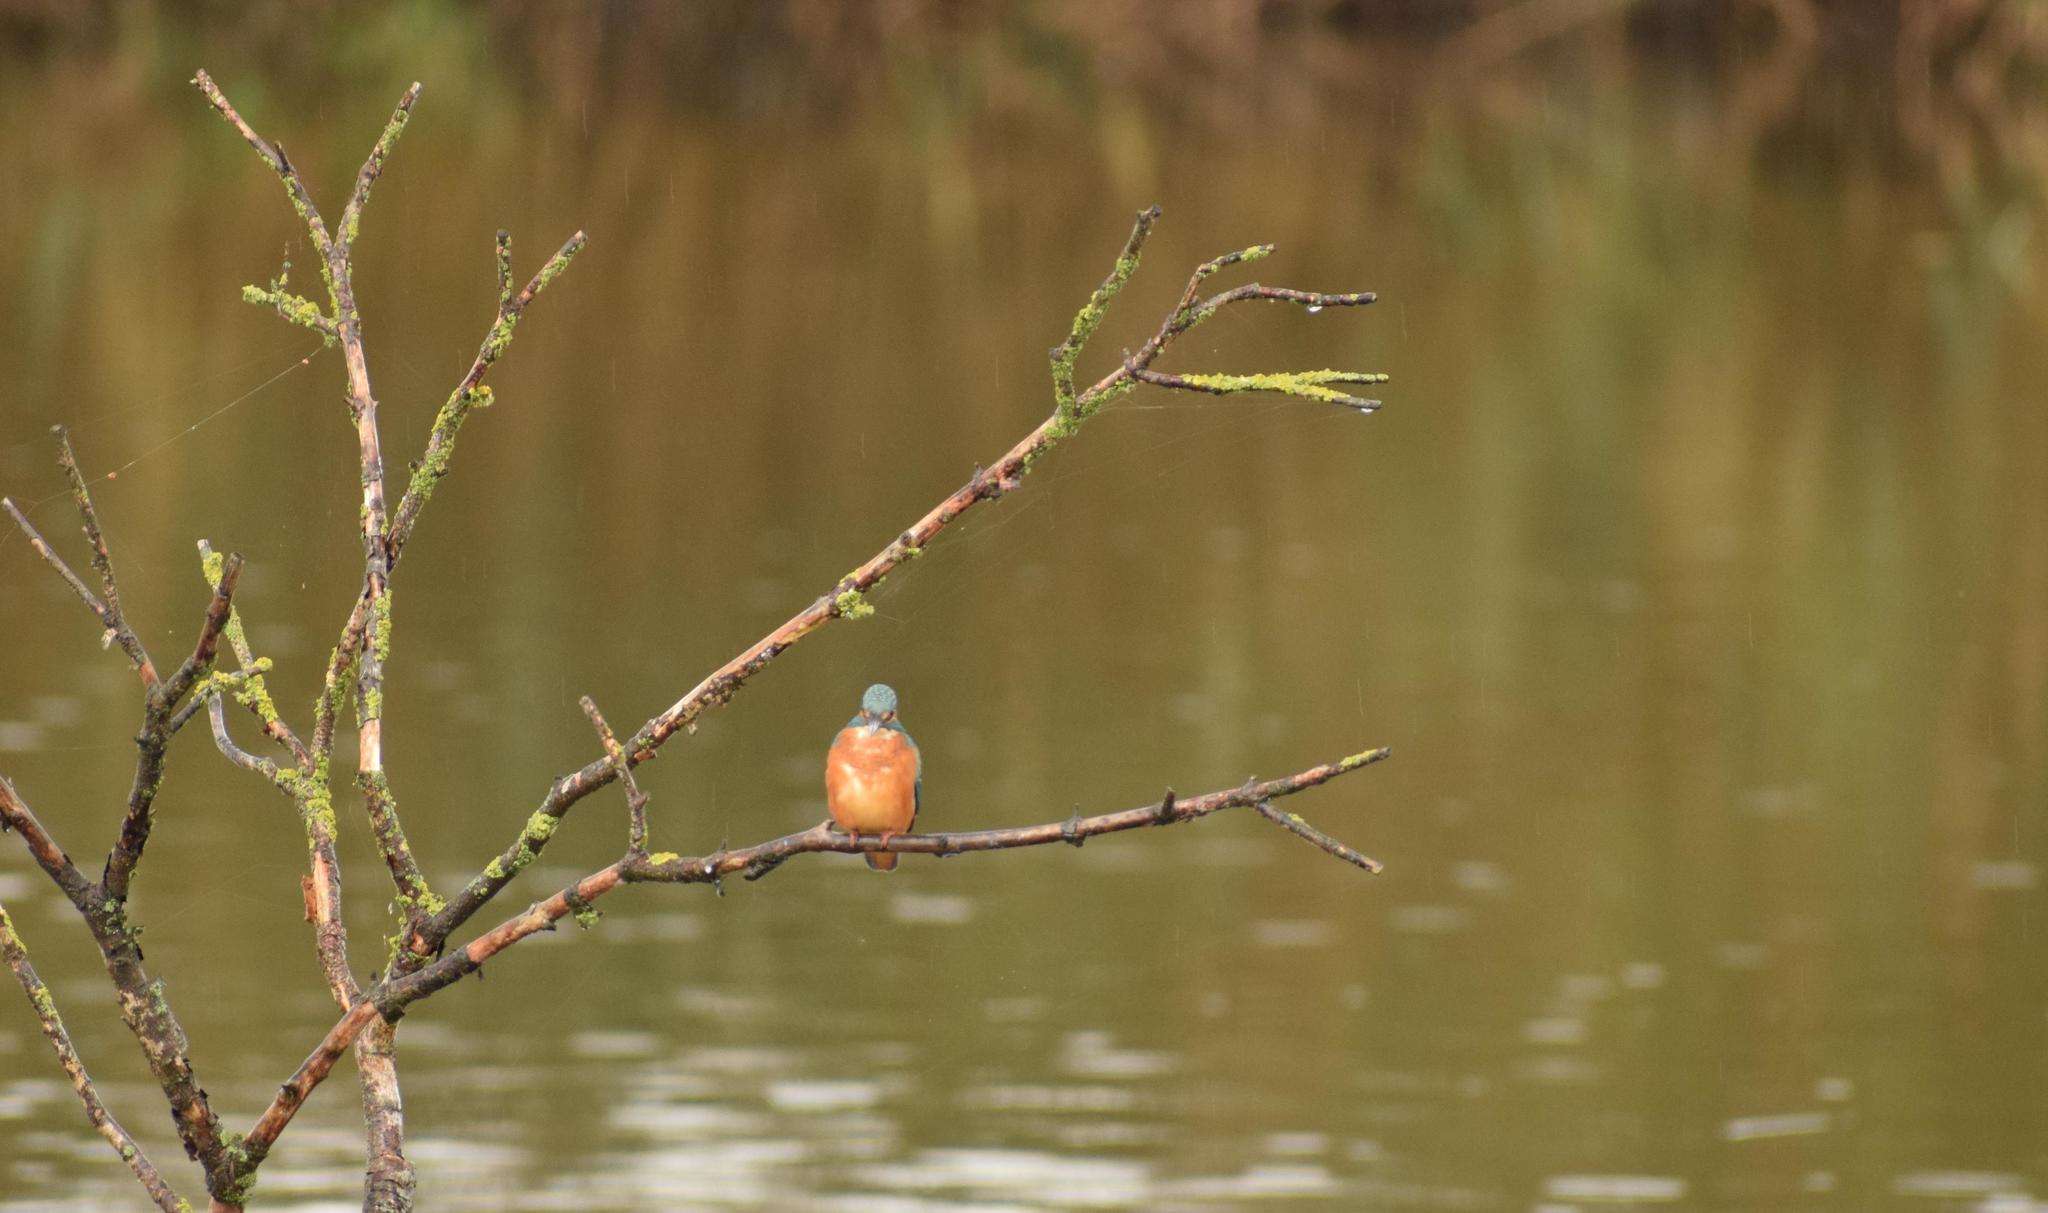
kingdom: Animalia
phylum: Chordata
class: Aves
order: Coraciiformes
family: Alcedinidae
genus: Alcedo
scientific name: Alcedo atthis
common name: Common kingfisher
